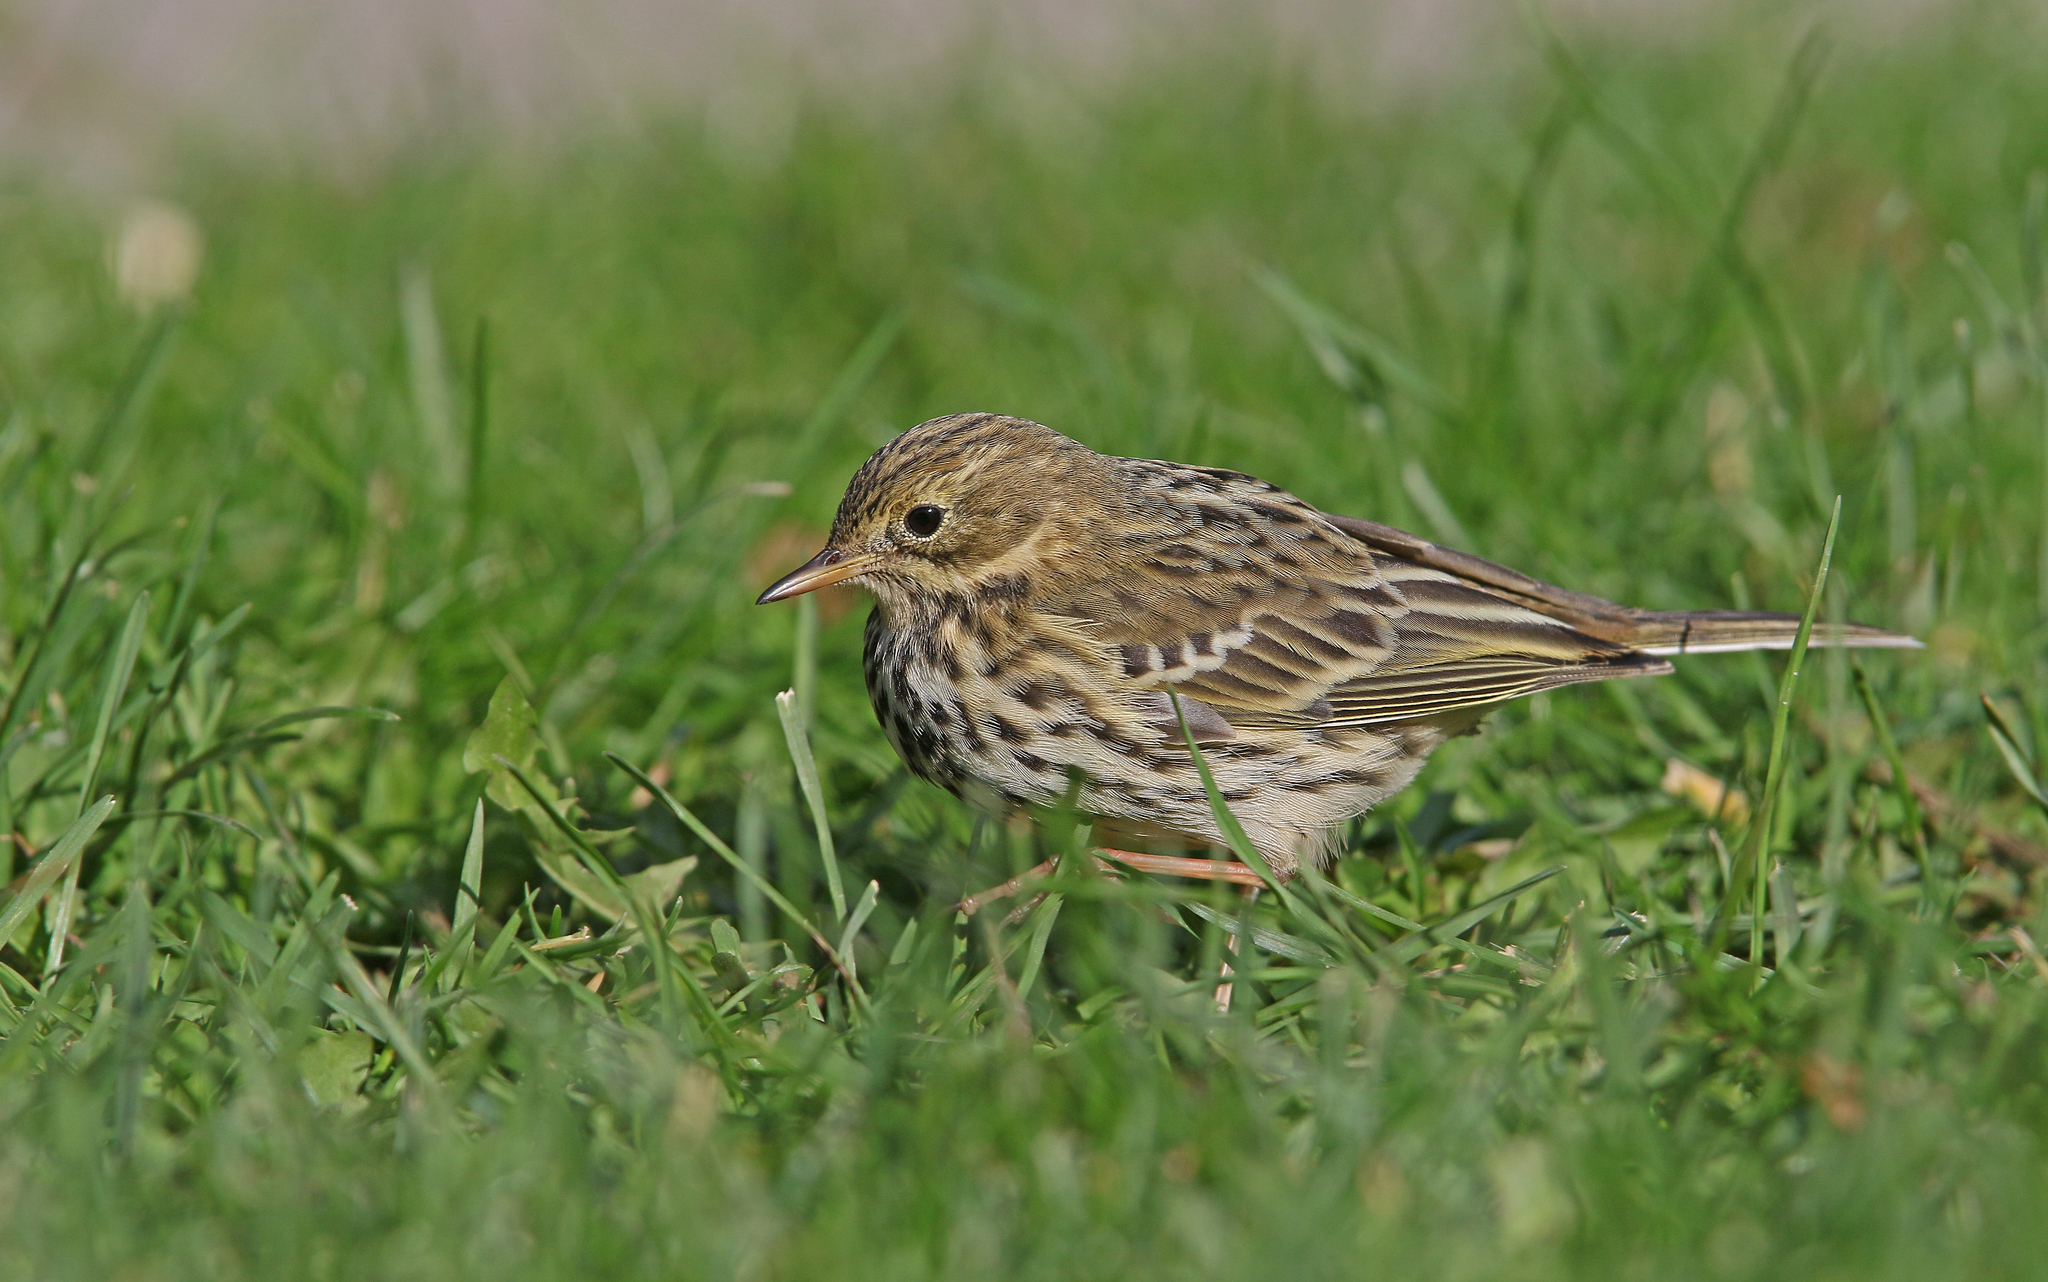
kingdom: Animalia
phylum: Chordata
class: Aves
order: Passeriformes
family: Motacillidae
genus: Anthus
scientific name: Anthus pratensis
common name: Meadow pipit
